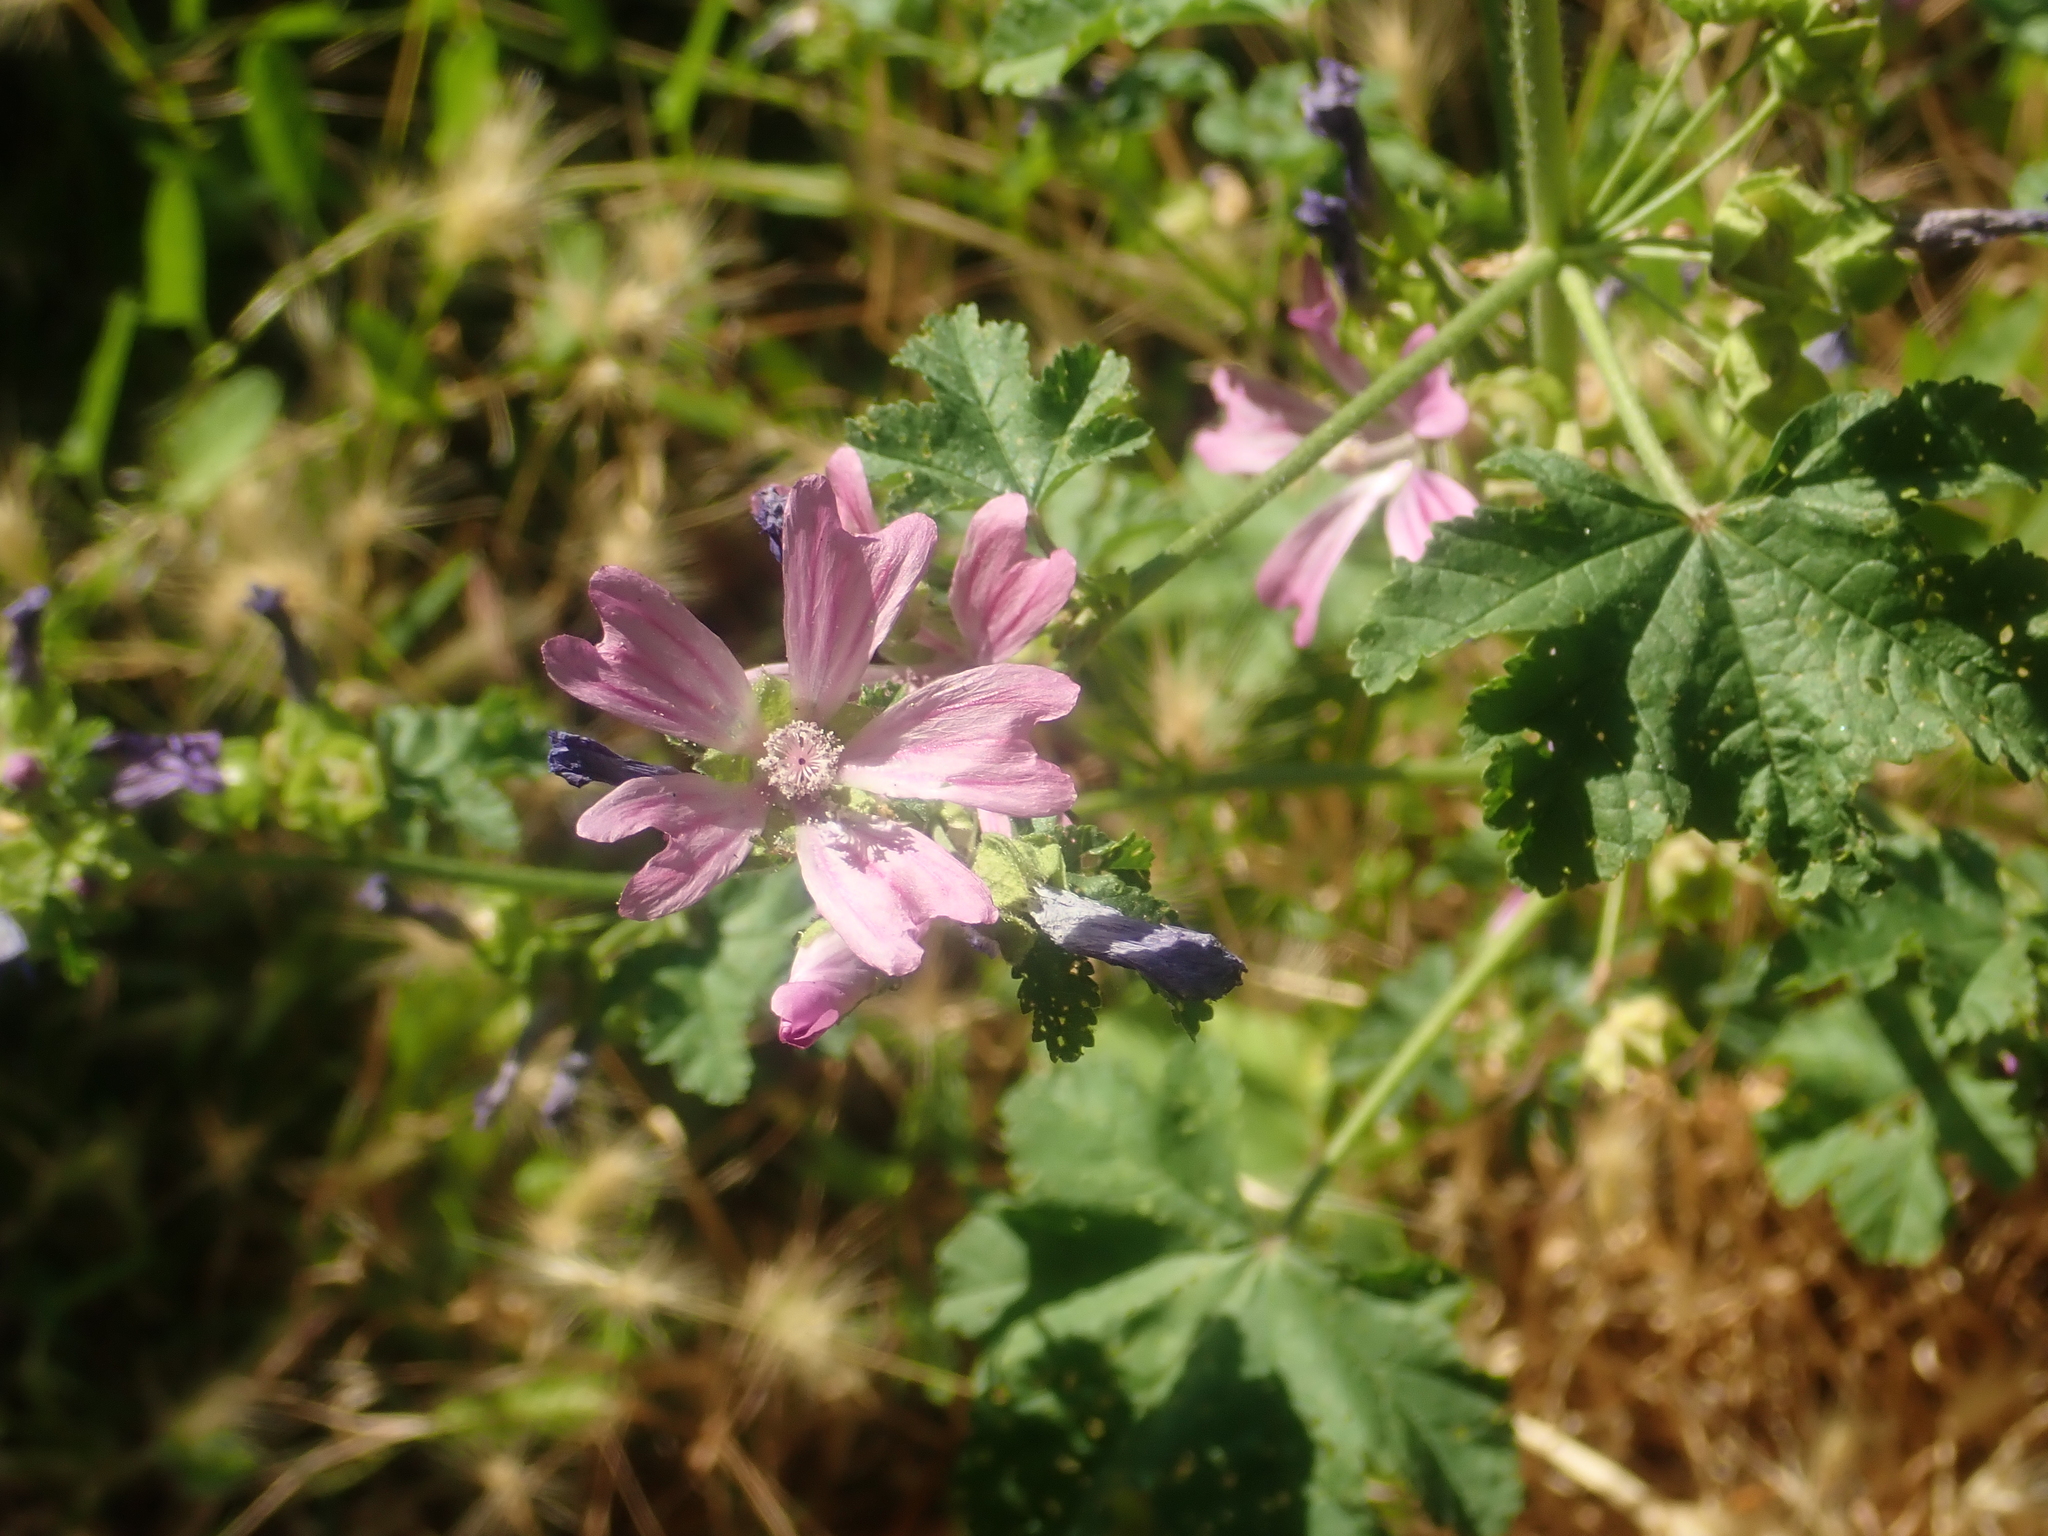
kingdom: Plantae
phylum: Tracheophyta
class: Magnoliopsida
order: Malvales
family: Malvaceae
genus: Malva
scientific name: Malva sylvestris
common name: Common mallow
